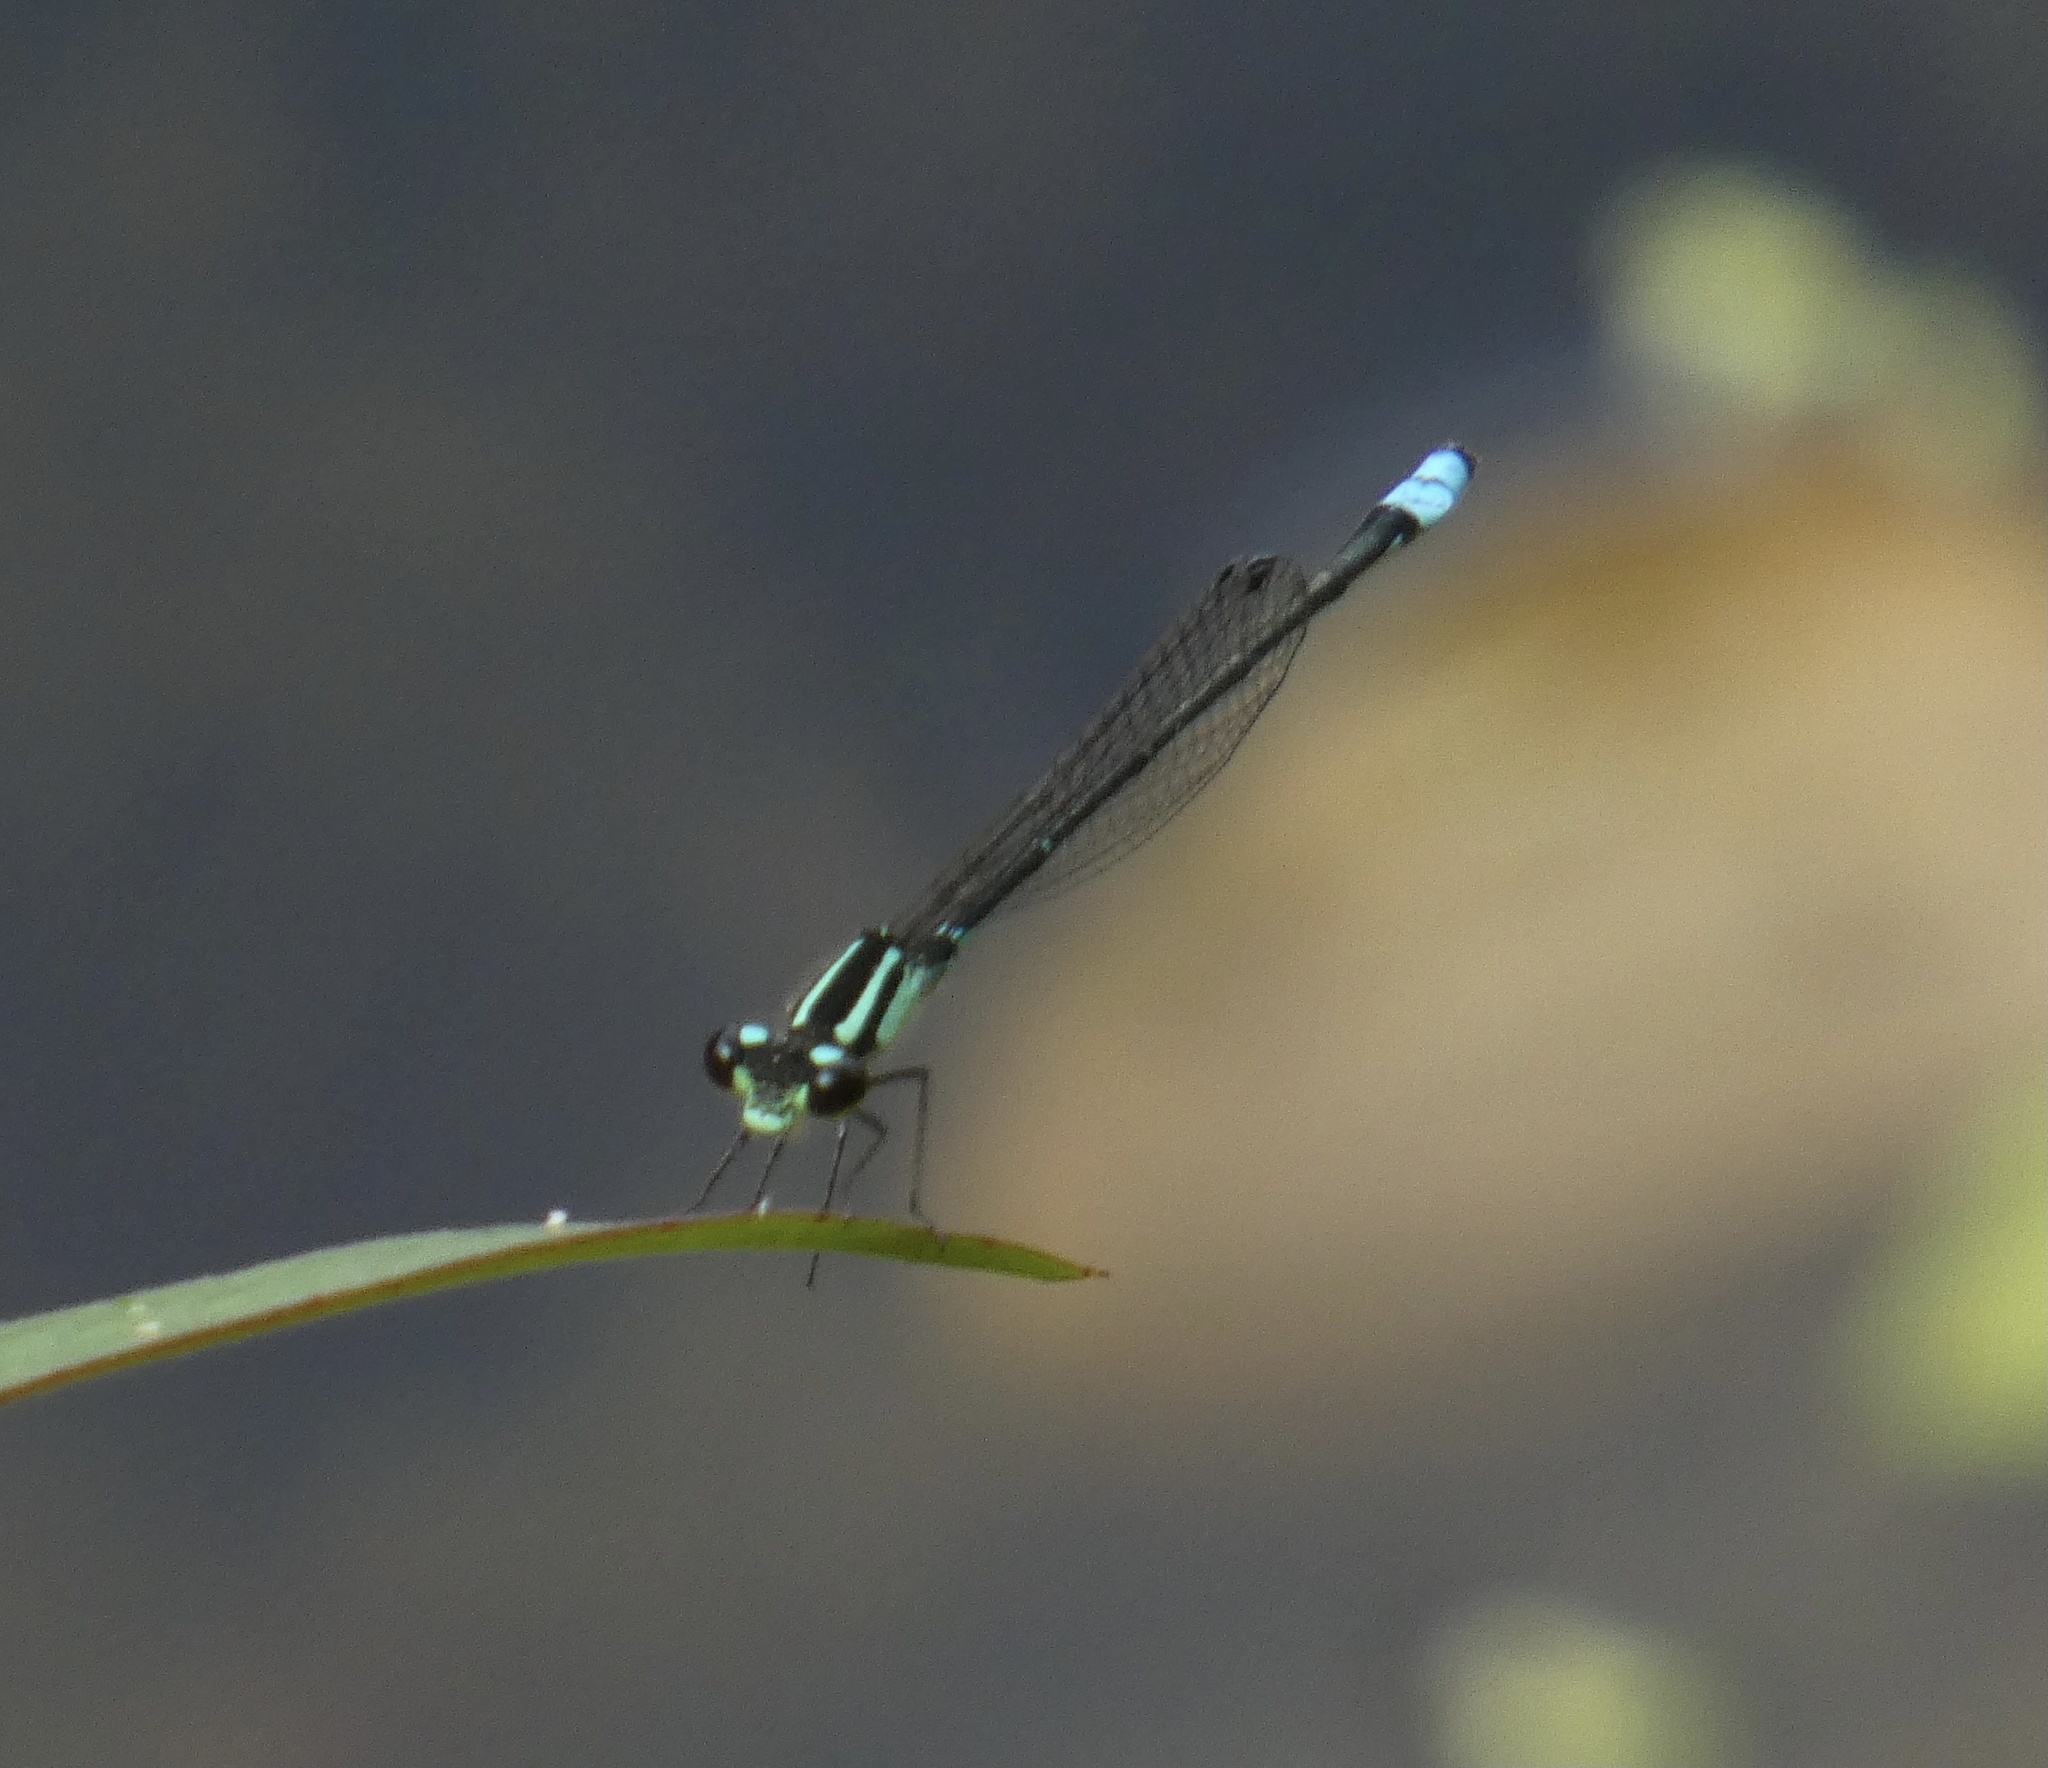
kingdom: Animalia
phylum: Arthropoda
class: Insecta
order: Odonata
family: Coenagrionidae
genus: Acanthagrion
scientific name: Acanthagrion lancea
